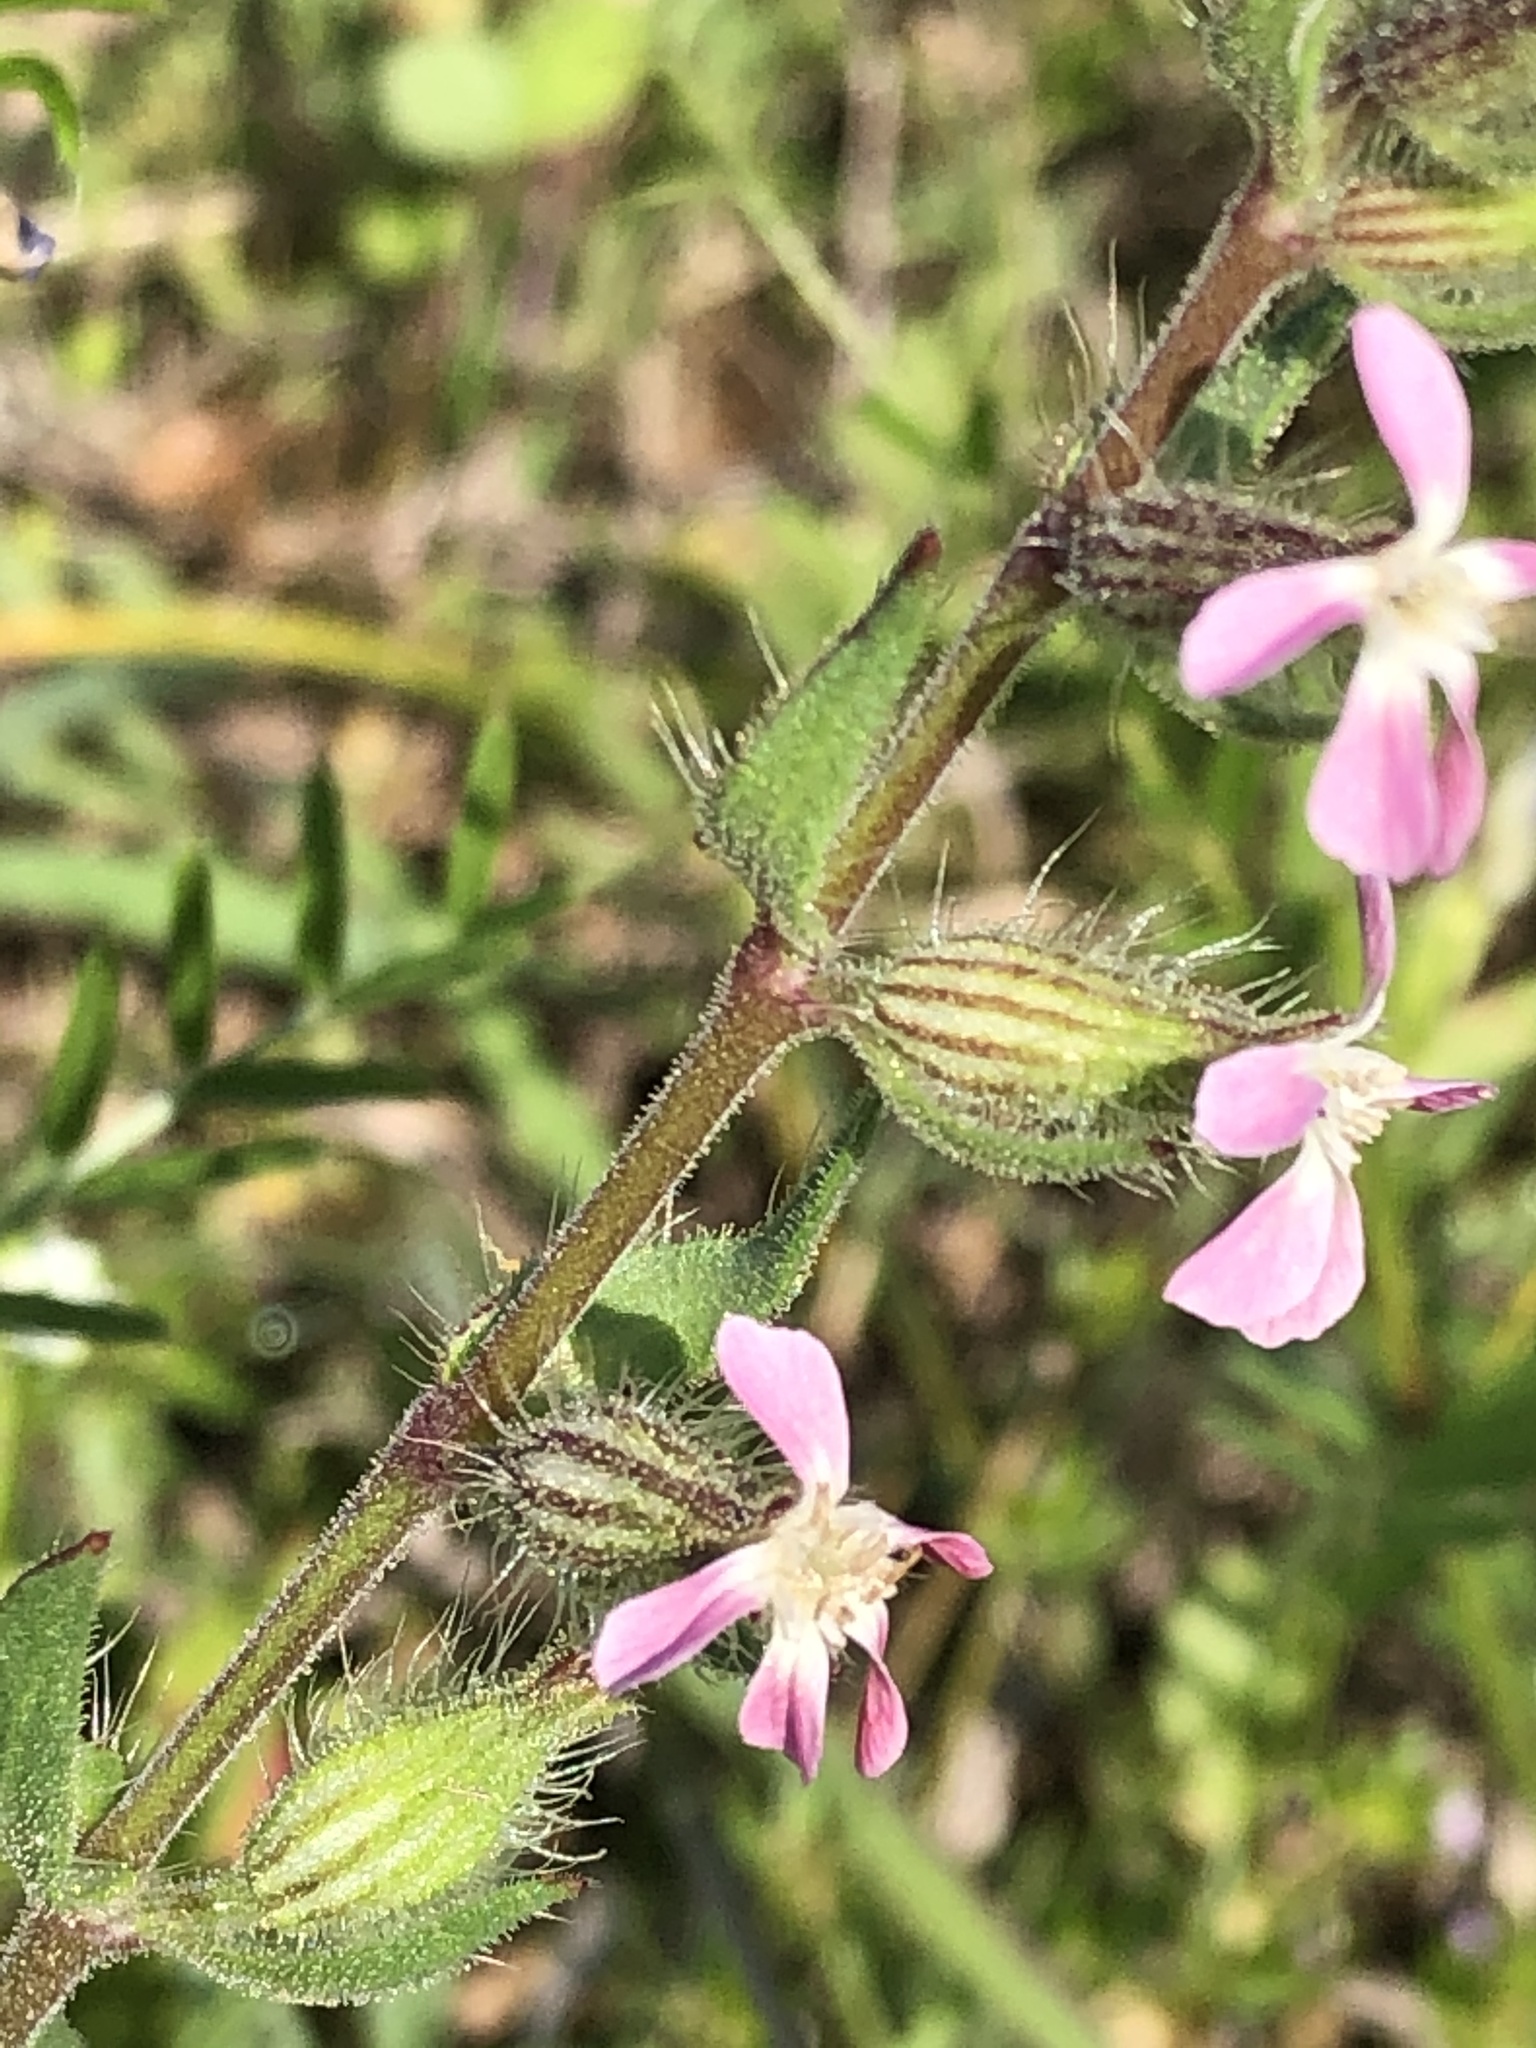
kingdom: Plantae
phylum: Tracheophyta
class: Magnoliopsida
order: Caryophyllales
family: Caryophyllaceae
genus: Silene
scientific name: Silene gallica
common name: Small-flowered catchfly
